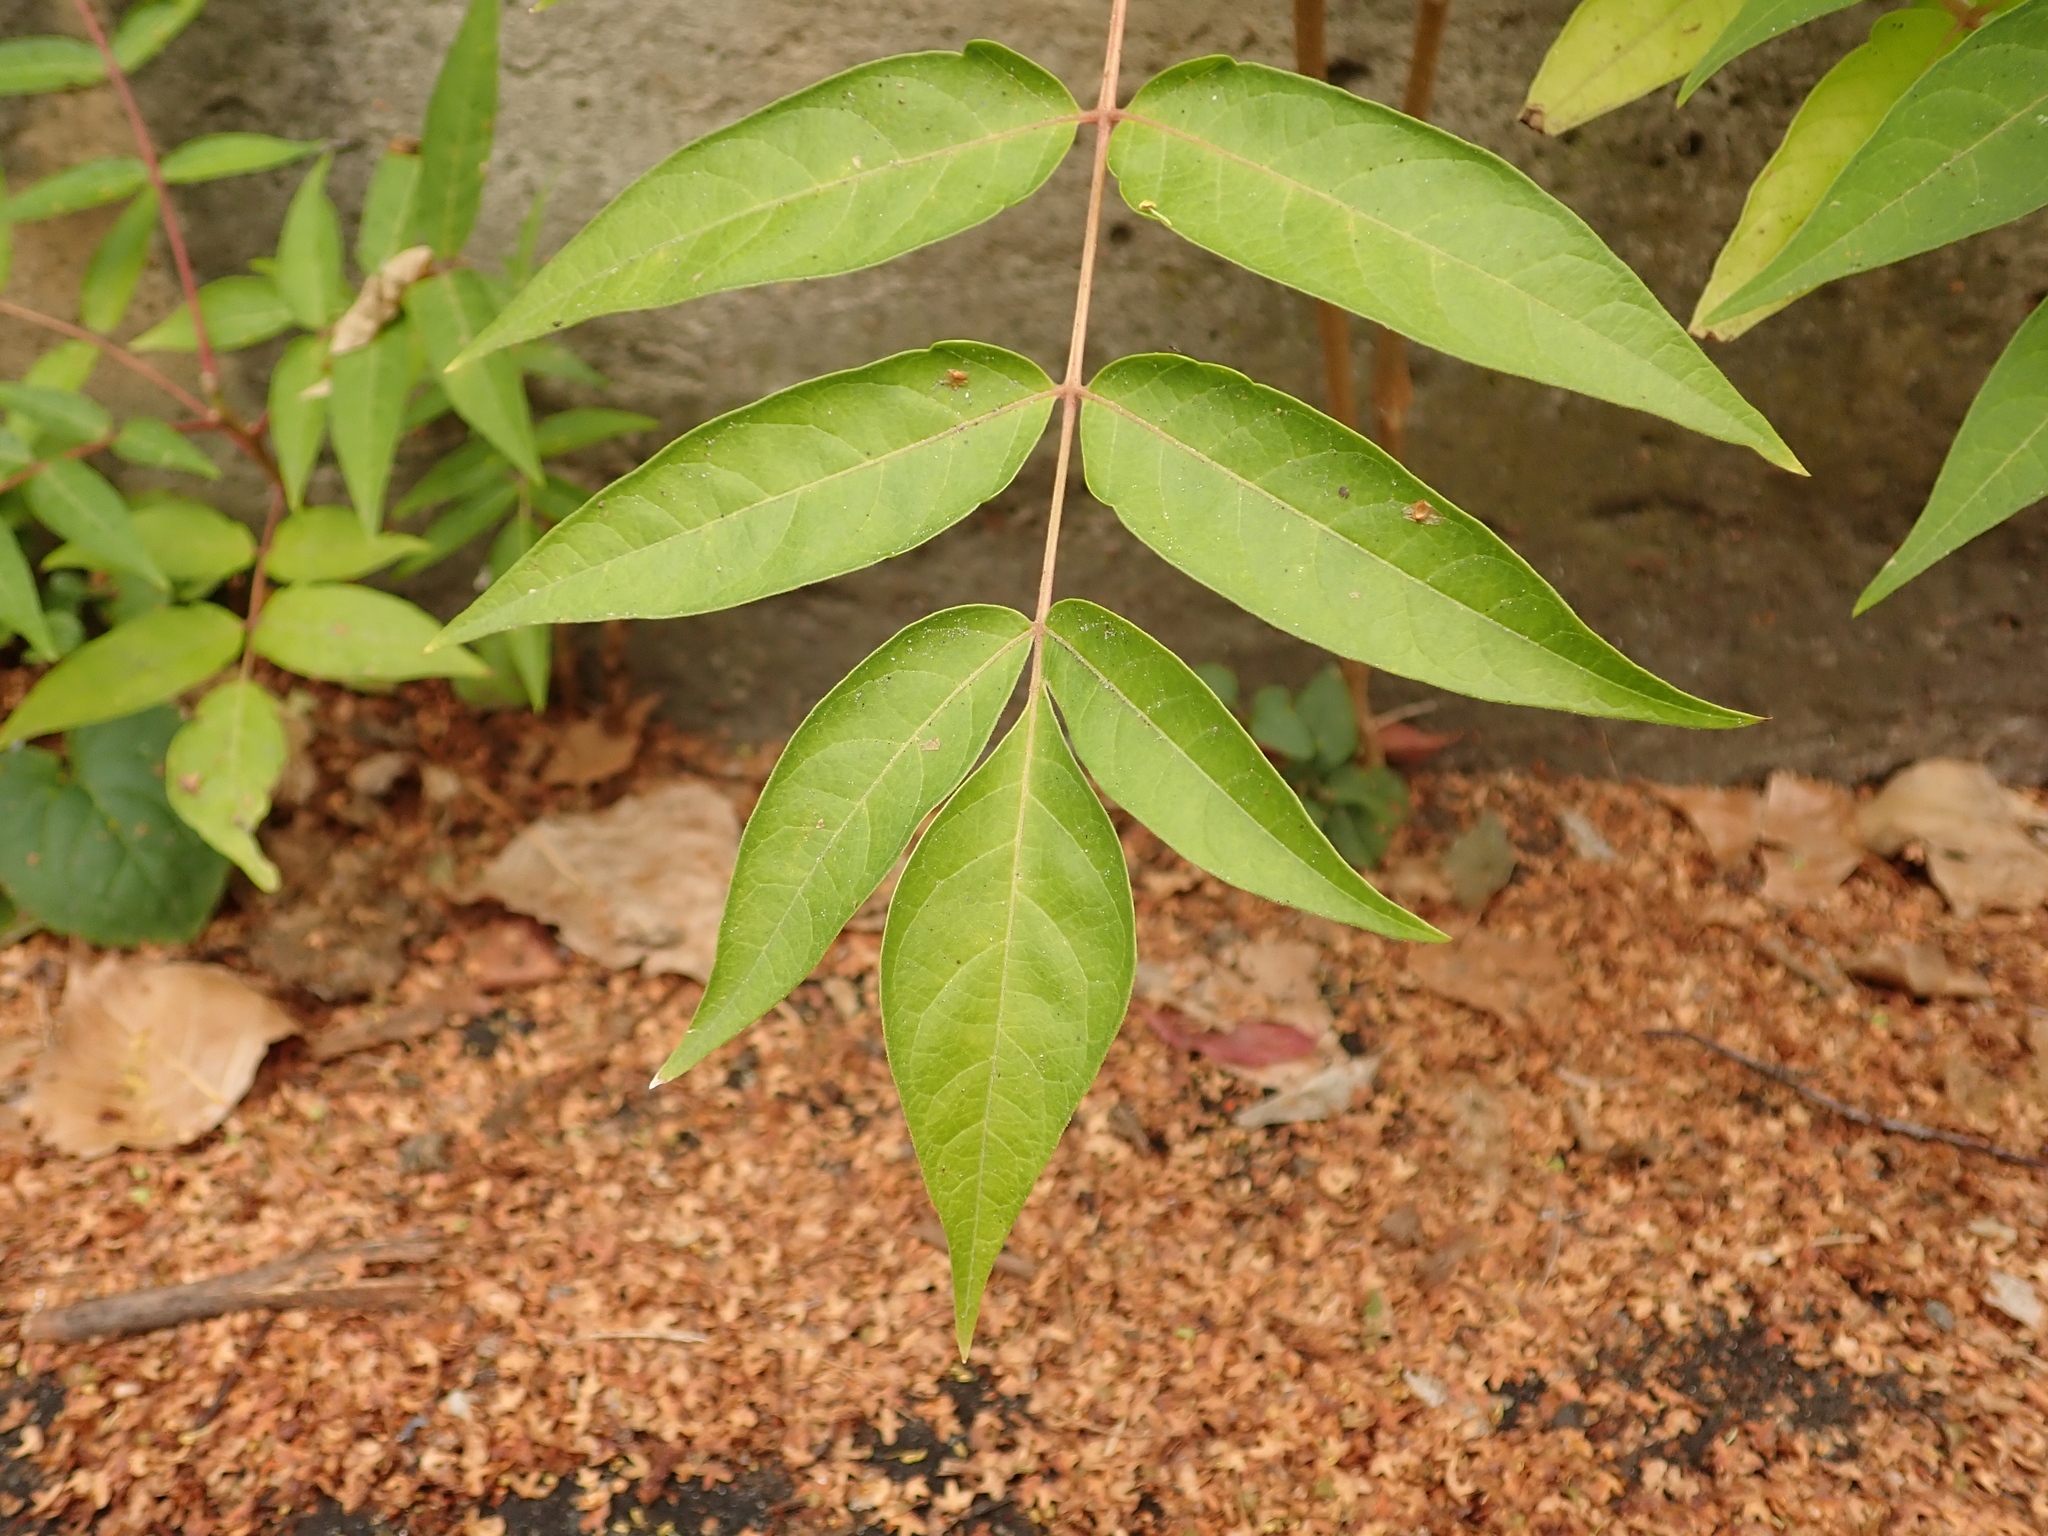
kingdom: Plantae
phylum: Tracheophyta
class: Magnoliopsida
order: Sapindales
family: Simaroubaceae
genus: Ailanthus
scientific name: Ailanthus altissima
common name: Tree-of-heaven
